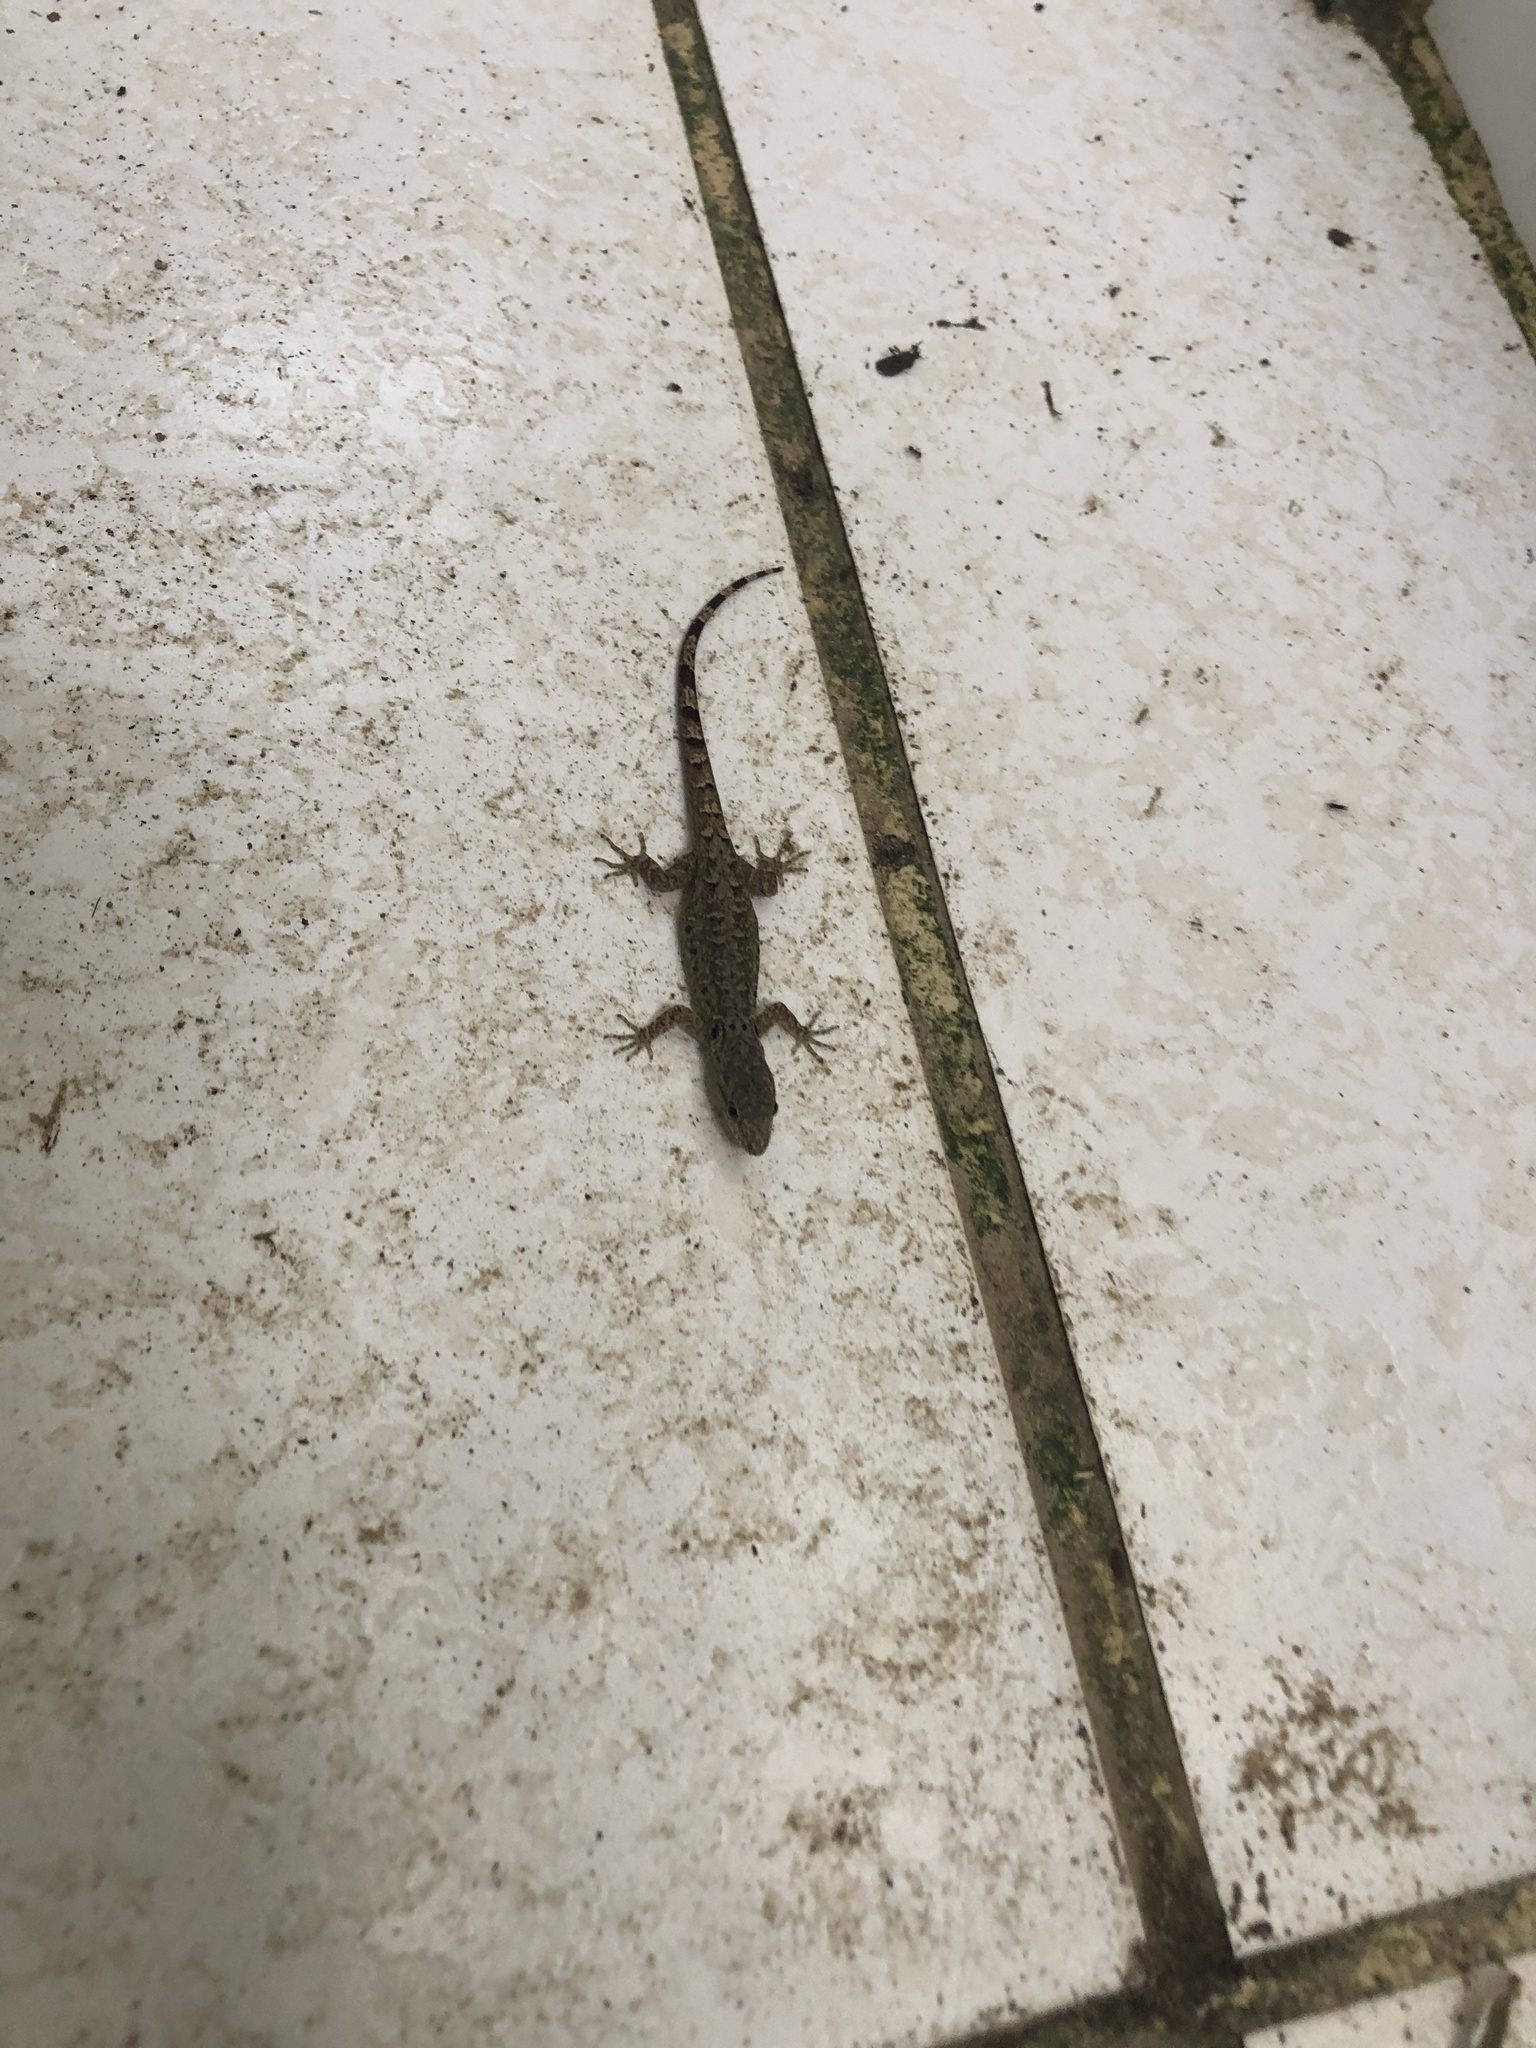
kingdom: Animalia
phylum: Chordata
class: Squamata
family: Sphaerodactylidae
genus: Gonatodes
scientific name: Gonatodes humeralis
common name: South american clawed gecko
